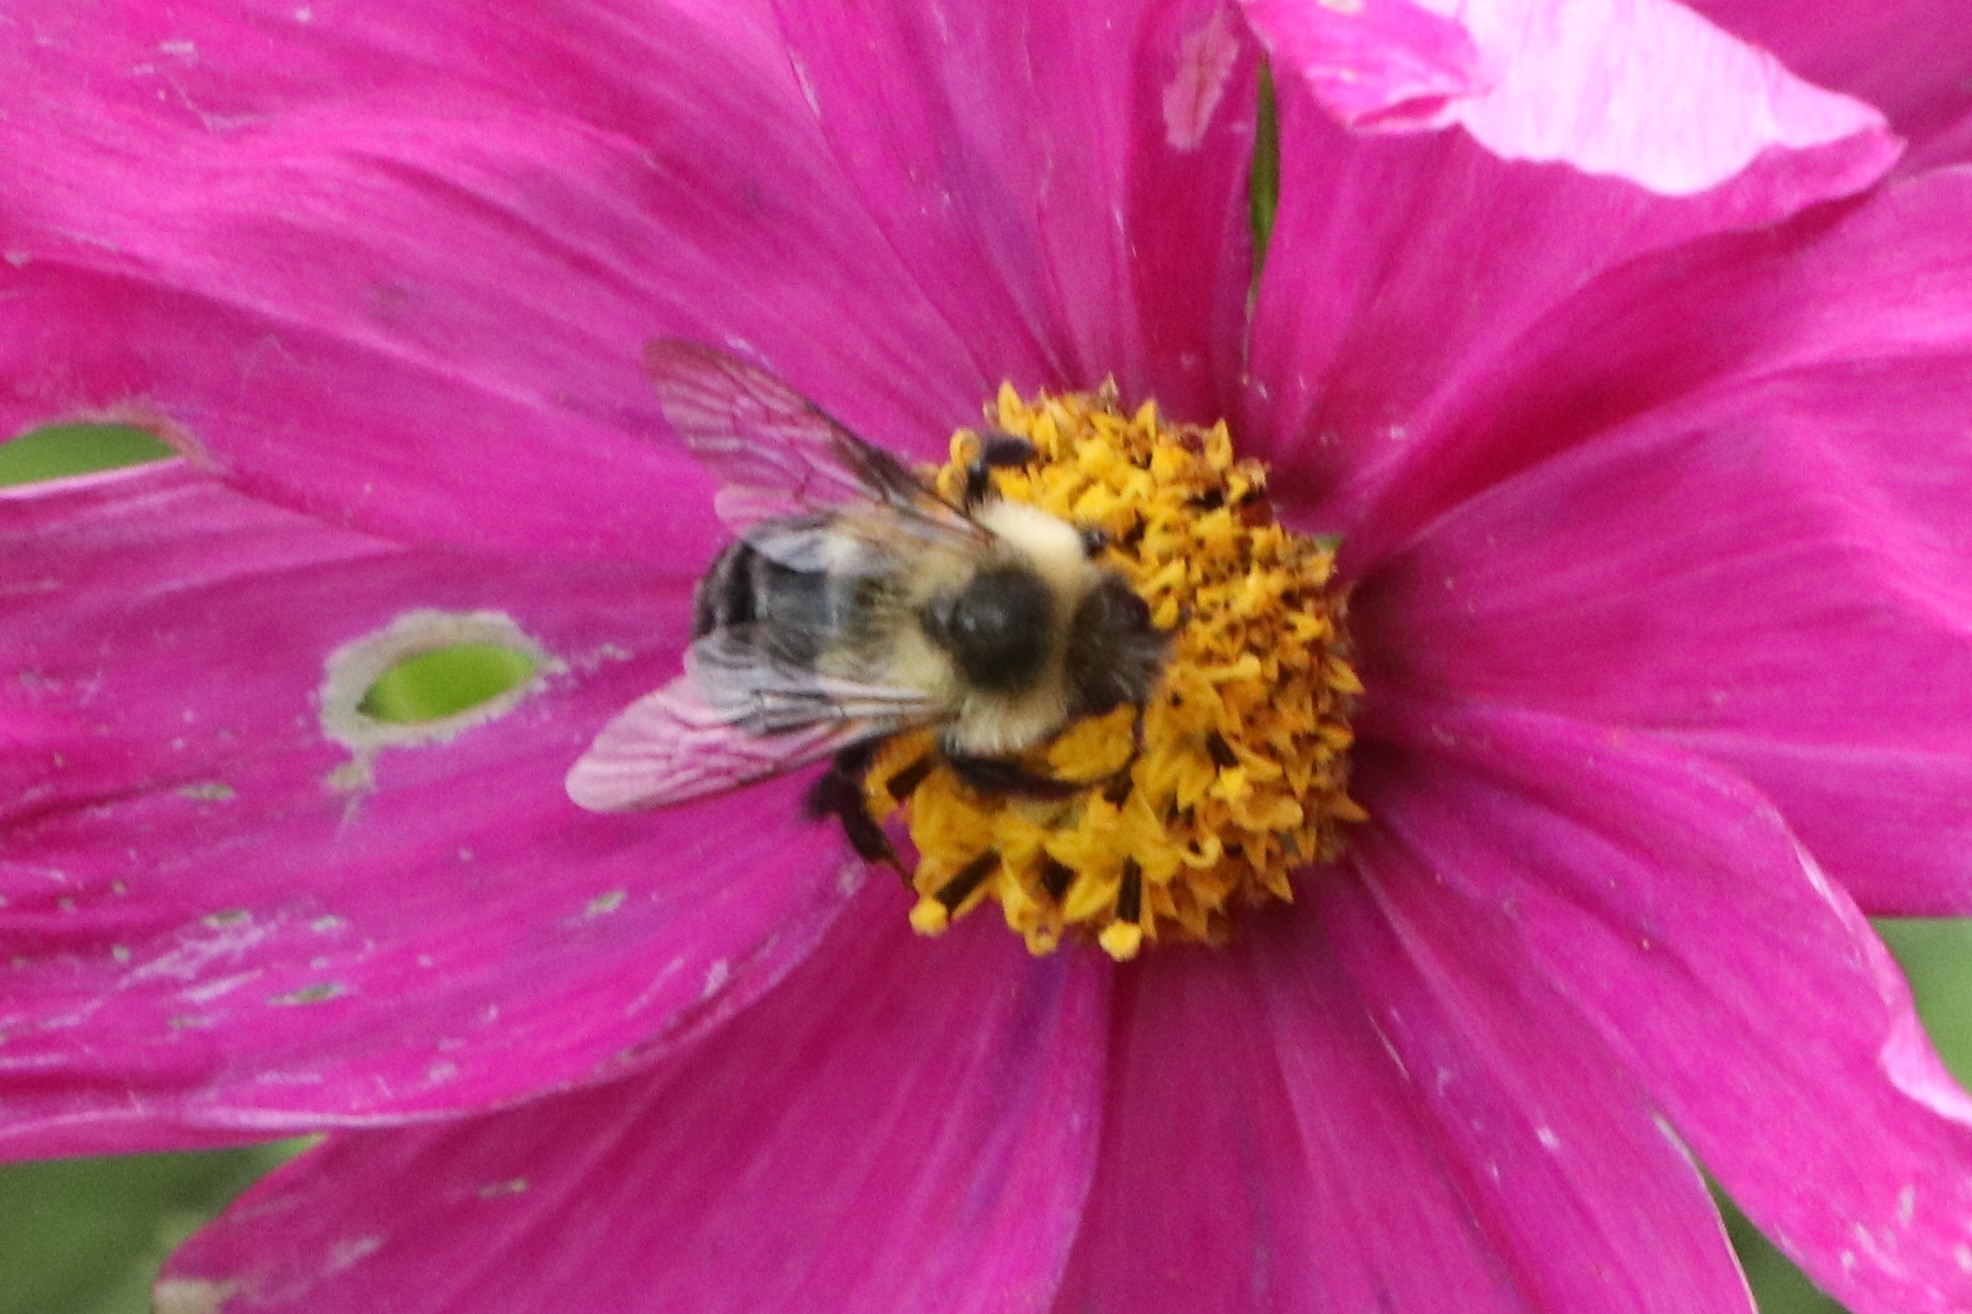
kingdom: Animalia
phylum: Arthropoda
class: Insecta
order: Hymenoptera
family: Apidae
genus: Bombus
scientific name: Bombus impatiens
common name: Common eastern bumble bee
